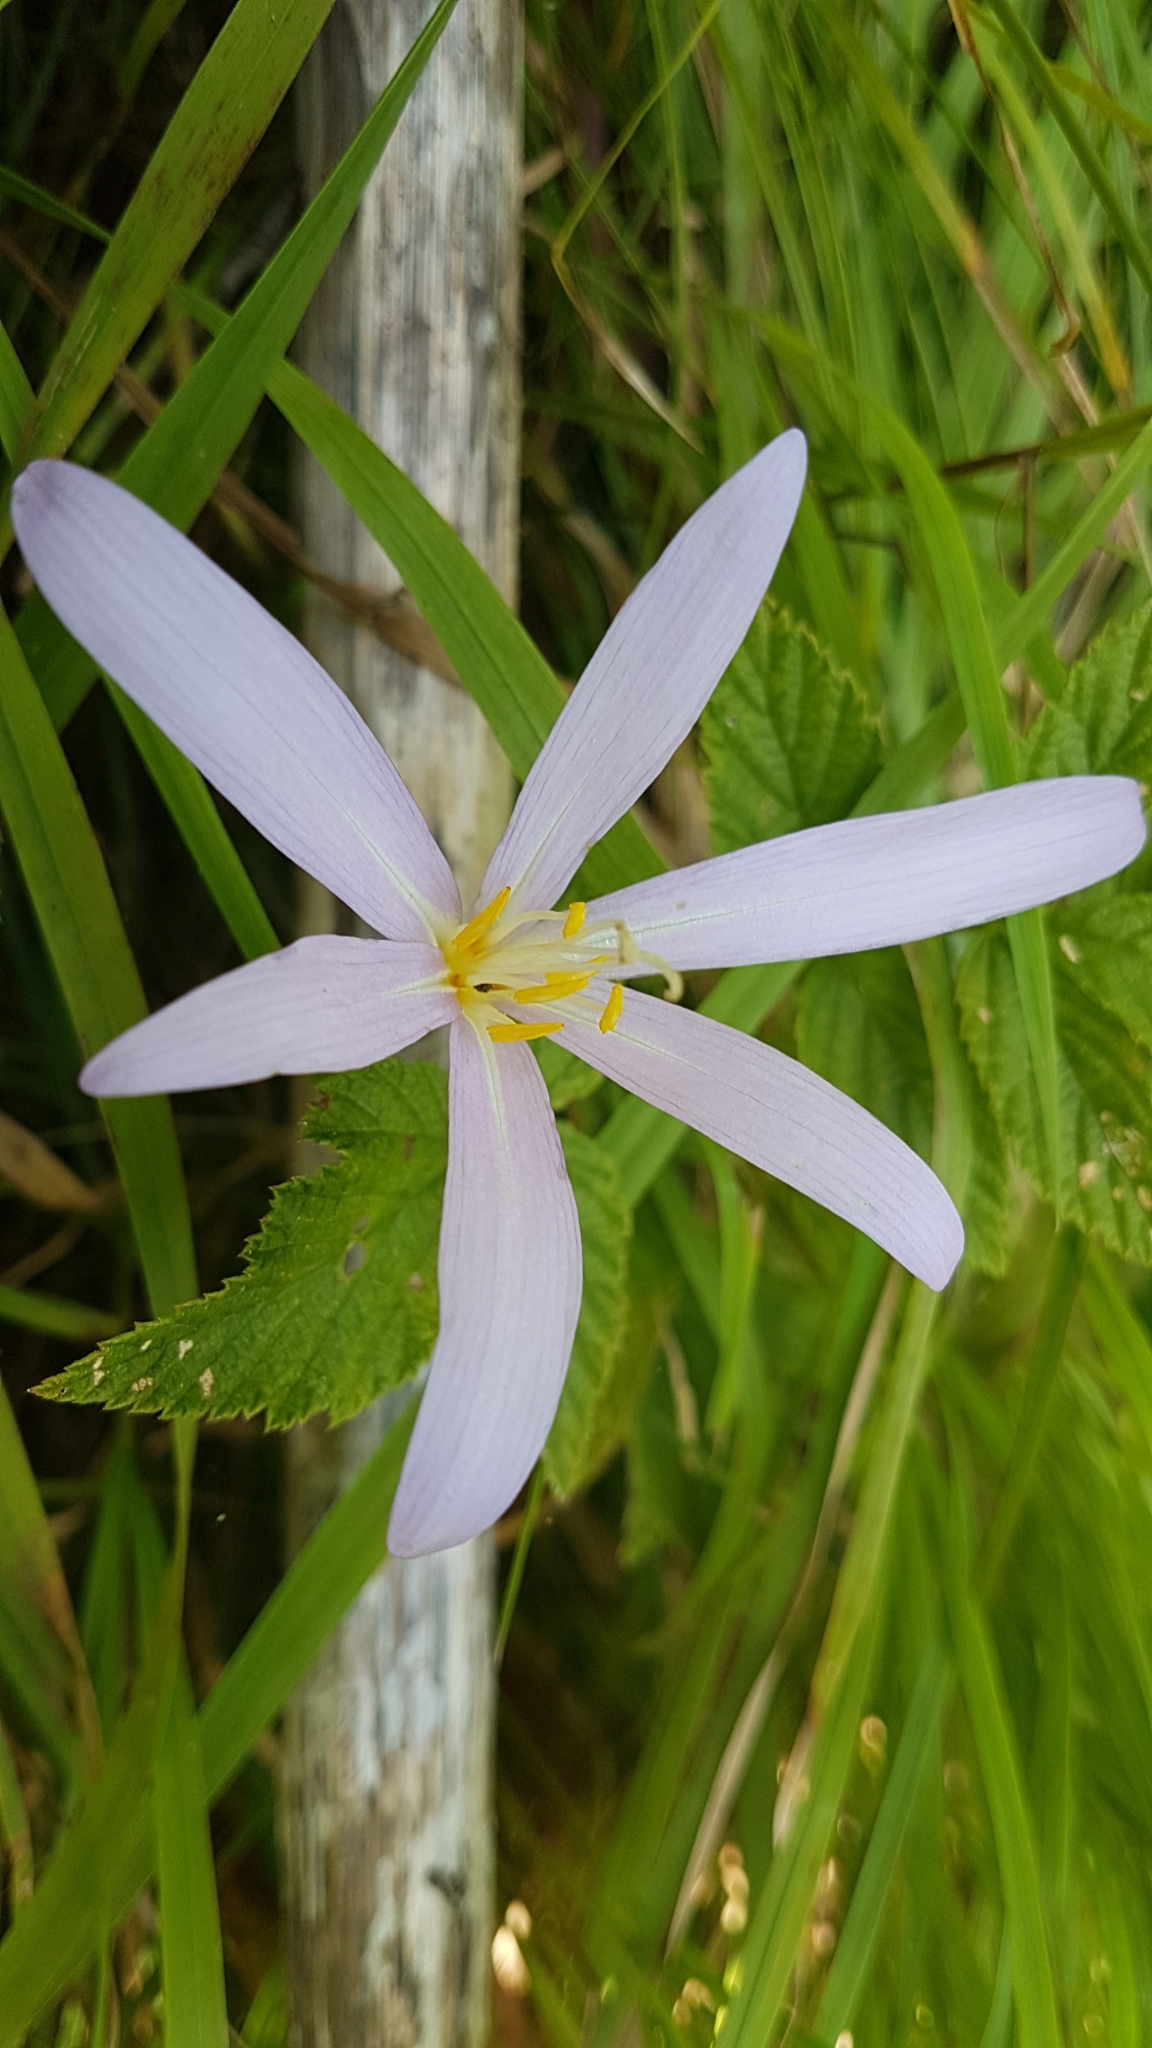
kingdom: Plantae
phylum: Tracheophyta
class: Liliopsida
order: Liliales
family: Colchicaceae
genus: Colchicum
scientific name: Colchicum autumnale
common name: Autumn crocus
